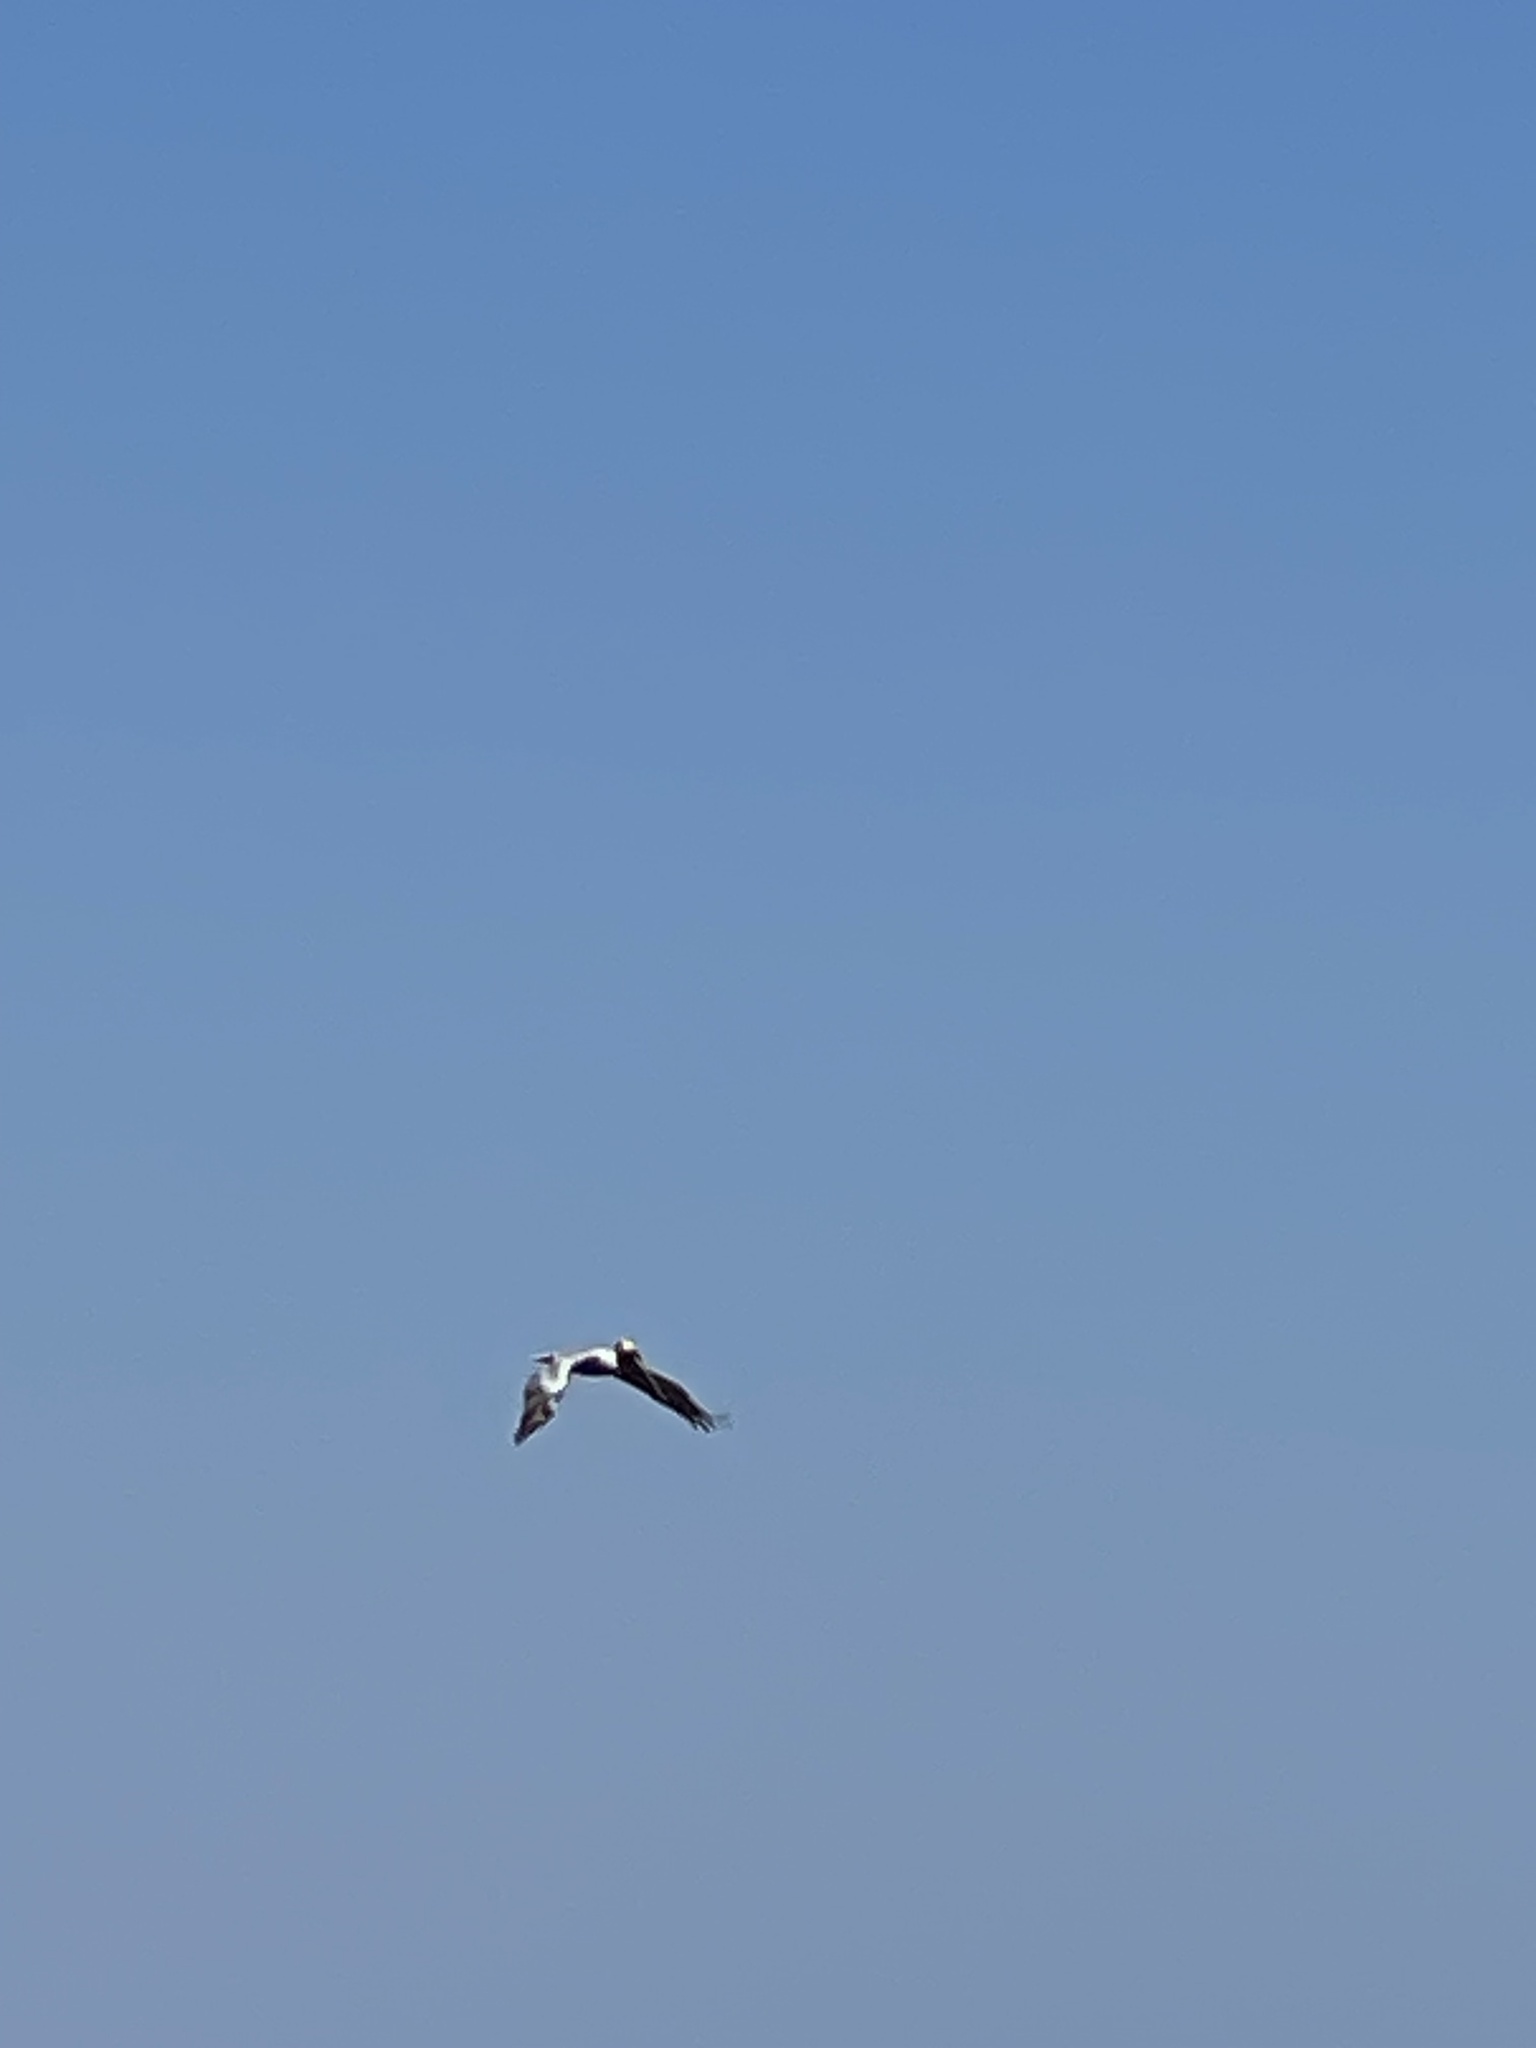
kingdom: Animalia
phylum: Chordata
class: Aves
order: Pelecaniformes
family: Pelecanidae
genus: Pelecanus
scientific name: Pelecanus occidentalis
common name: Brown pelican
